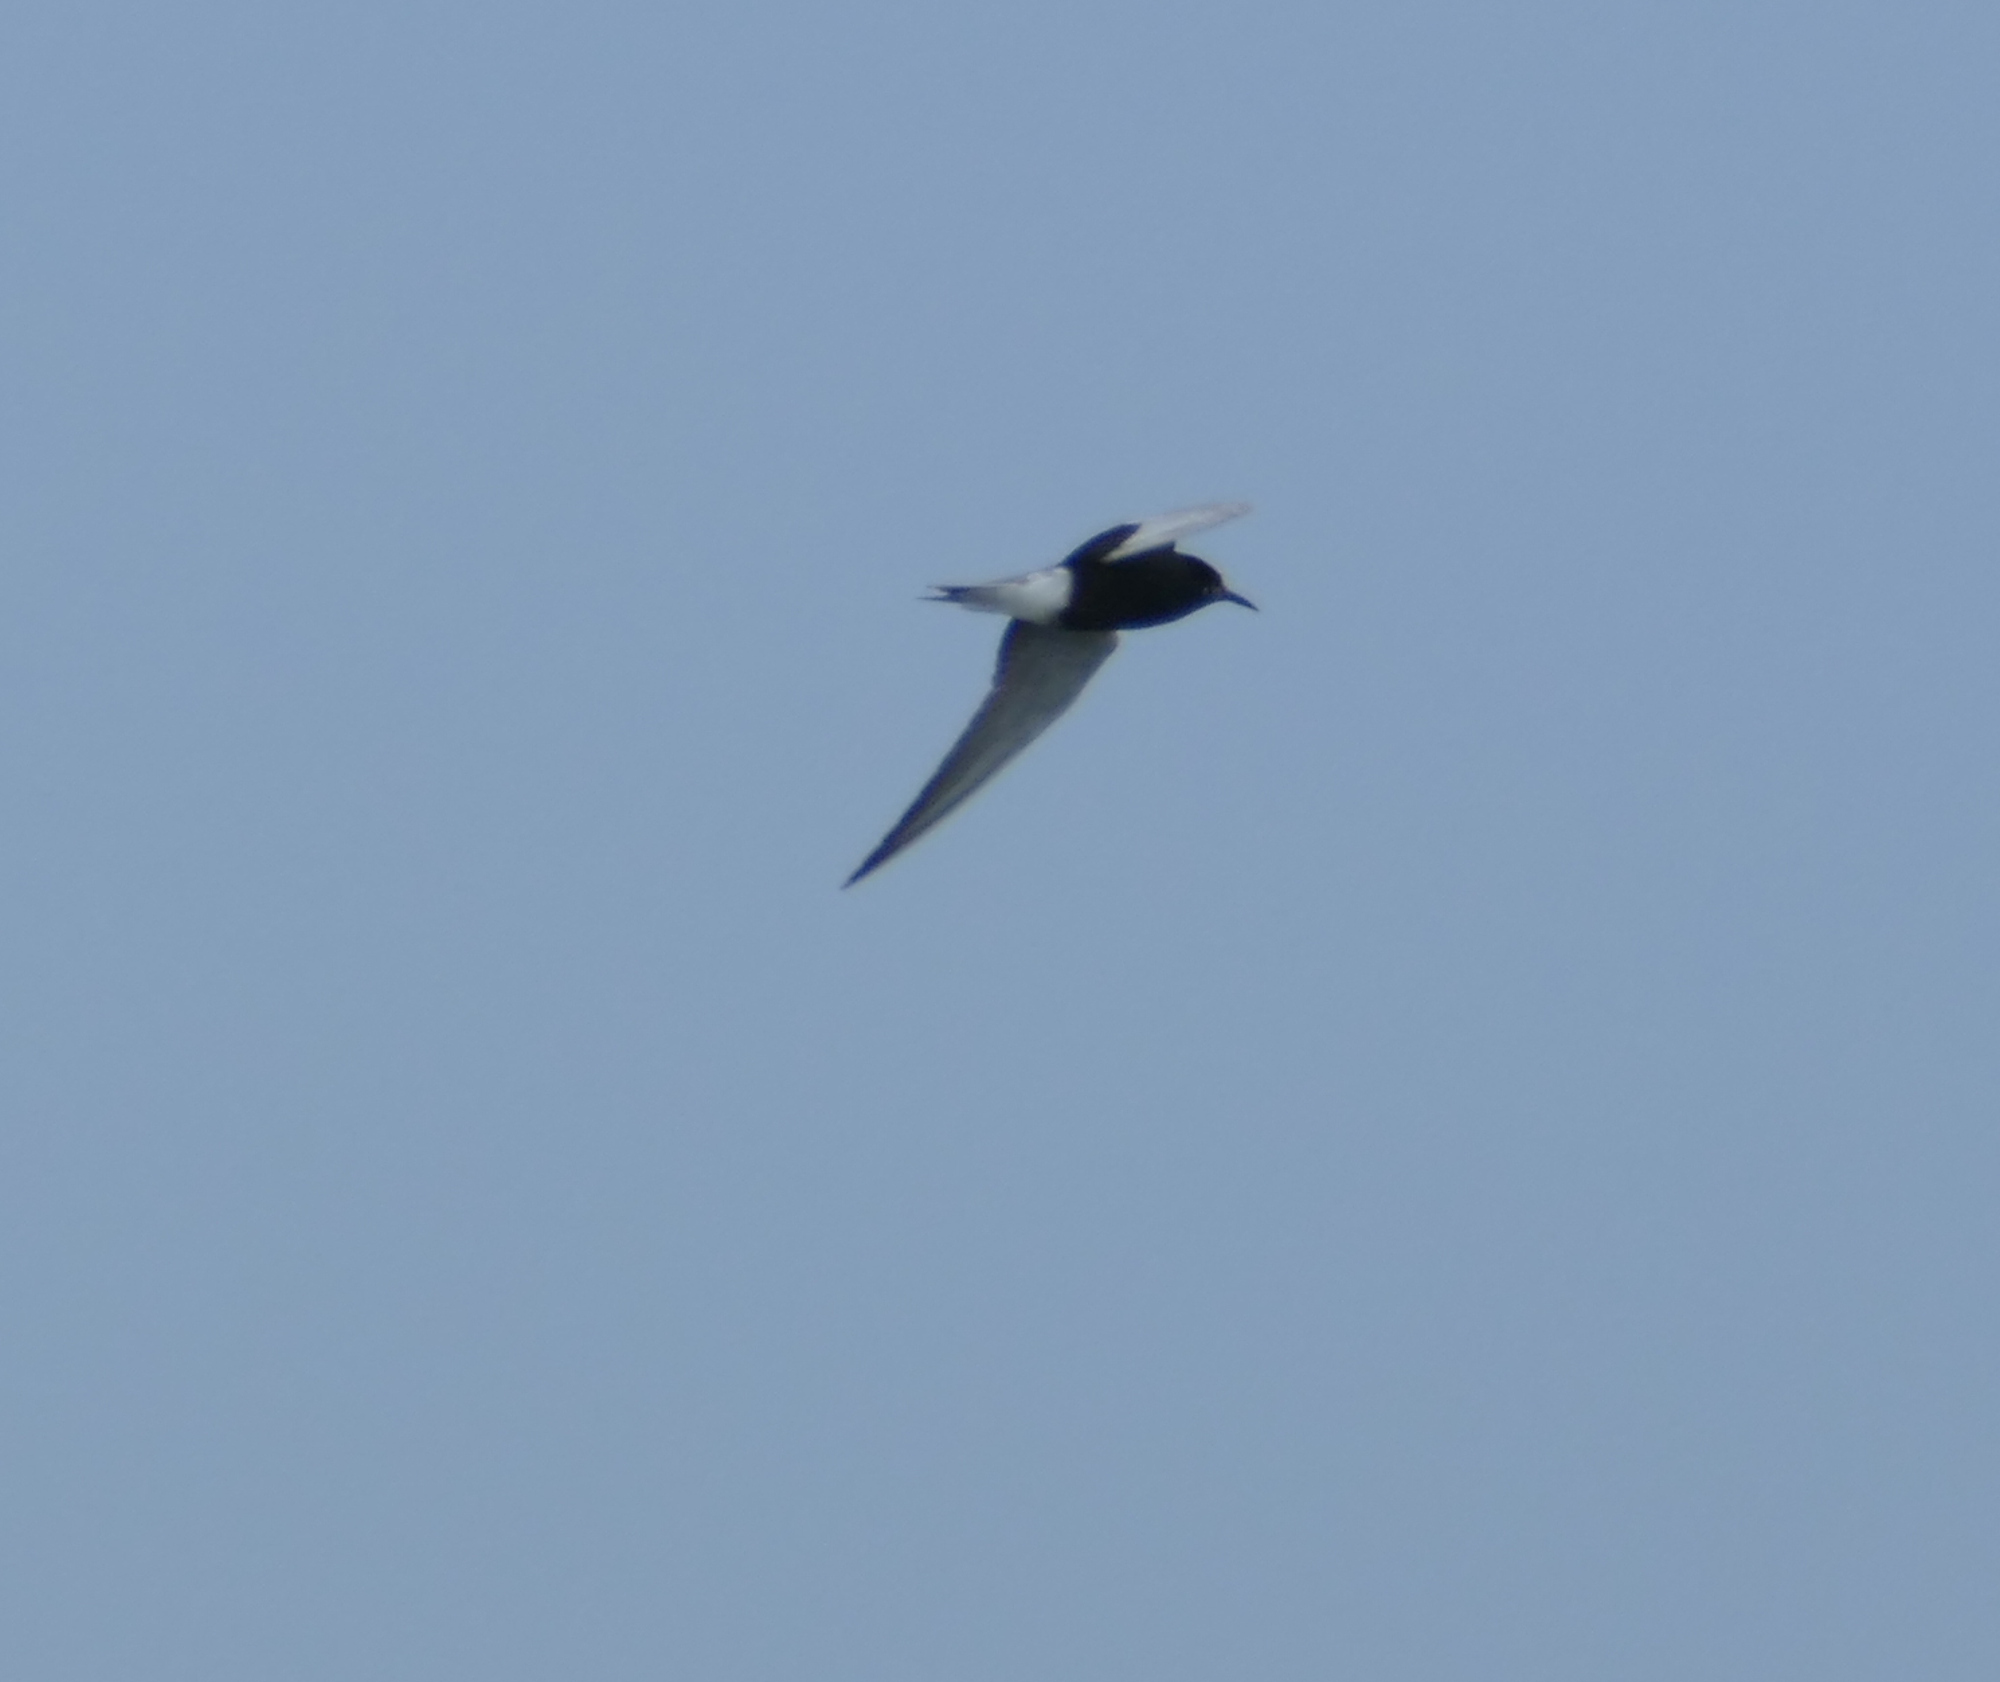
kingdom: Animalia
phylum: Chordata
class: Aves
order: Charadriiformes
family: Laridae
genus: Chlidonias
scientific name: Chlidonias niger
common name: Black tern
